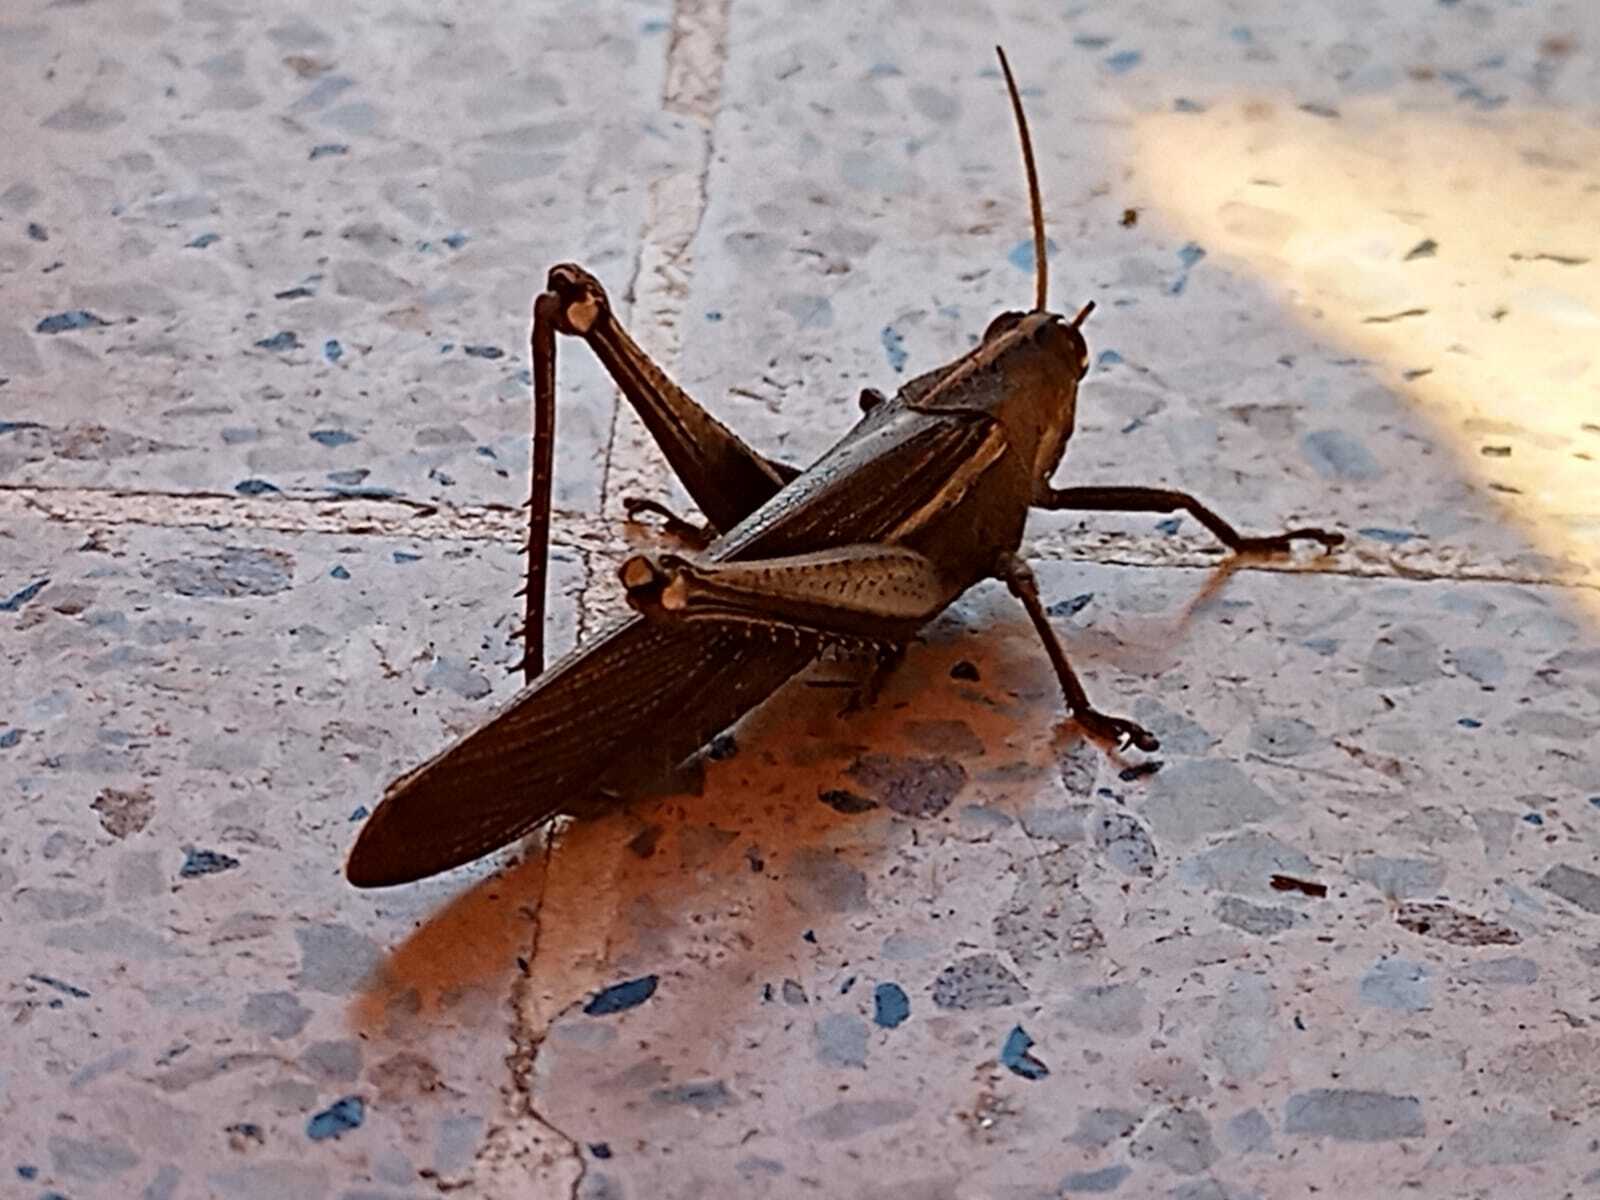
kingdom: Animalia
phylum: Arthropoda
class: Insecta
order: Orthoptera
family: Acrididae
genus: Schistocerca
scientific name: Schistocerca flavofasciata
